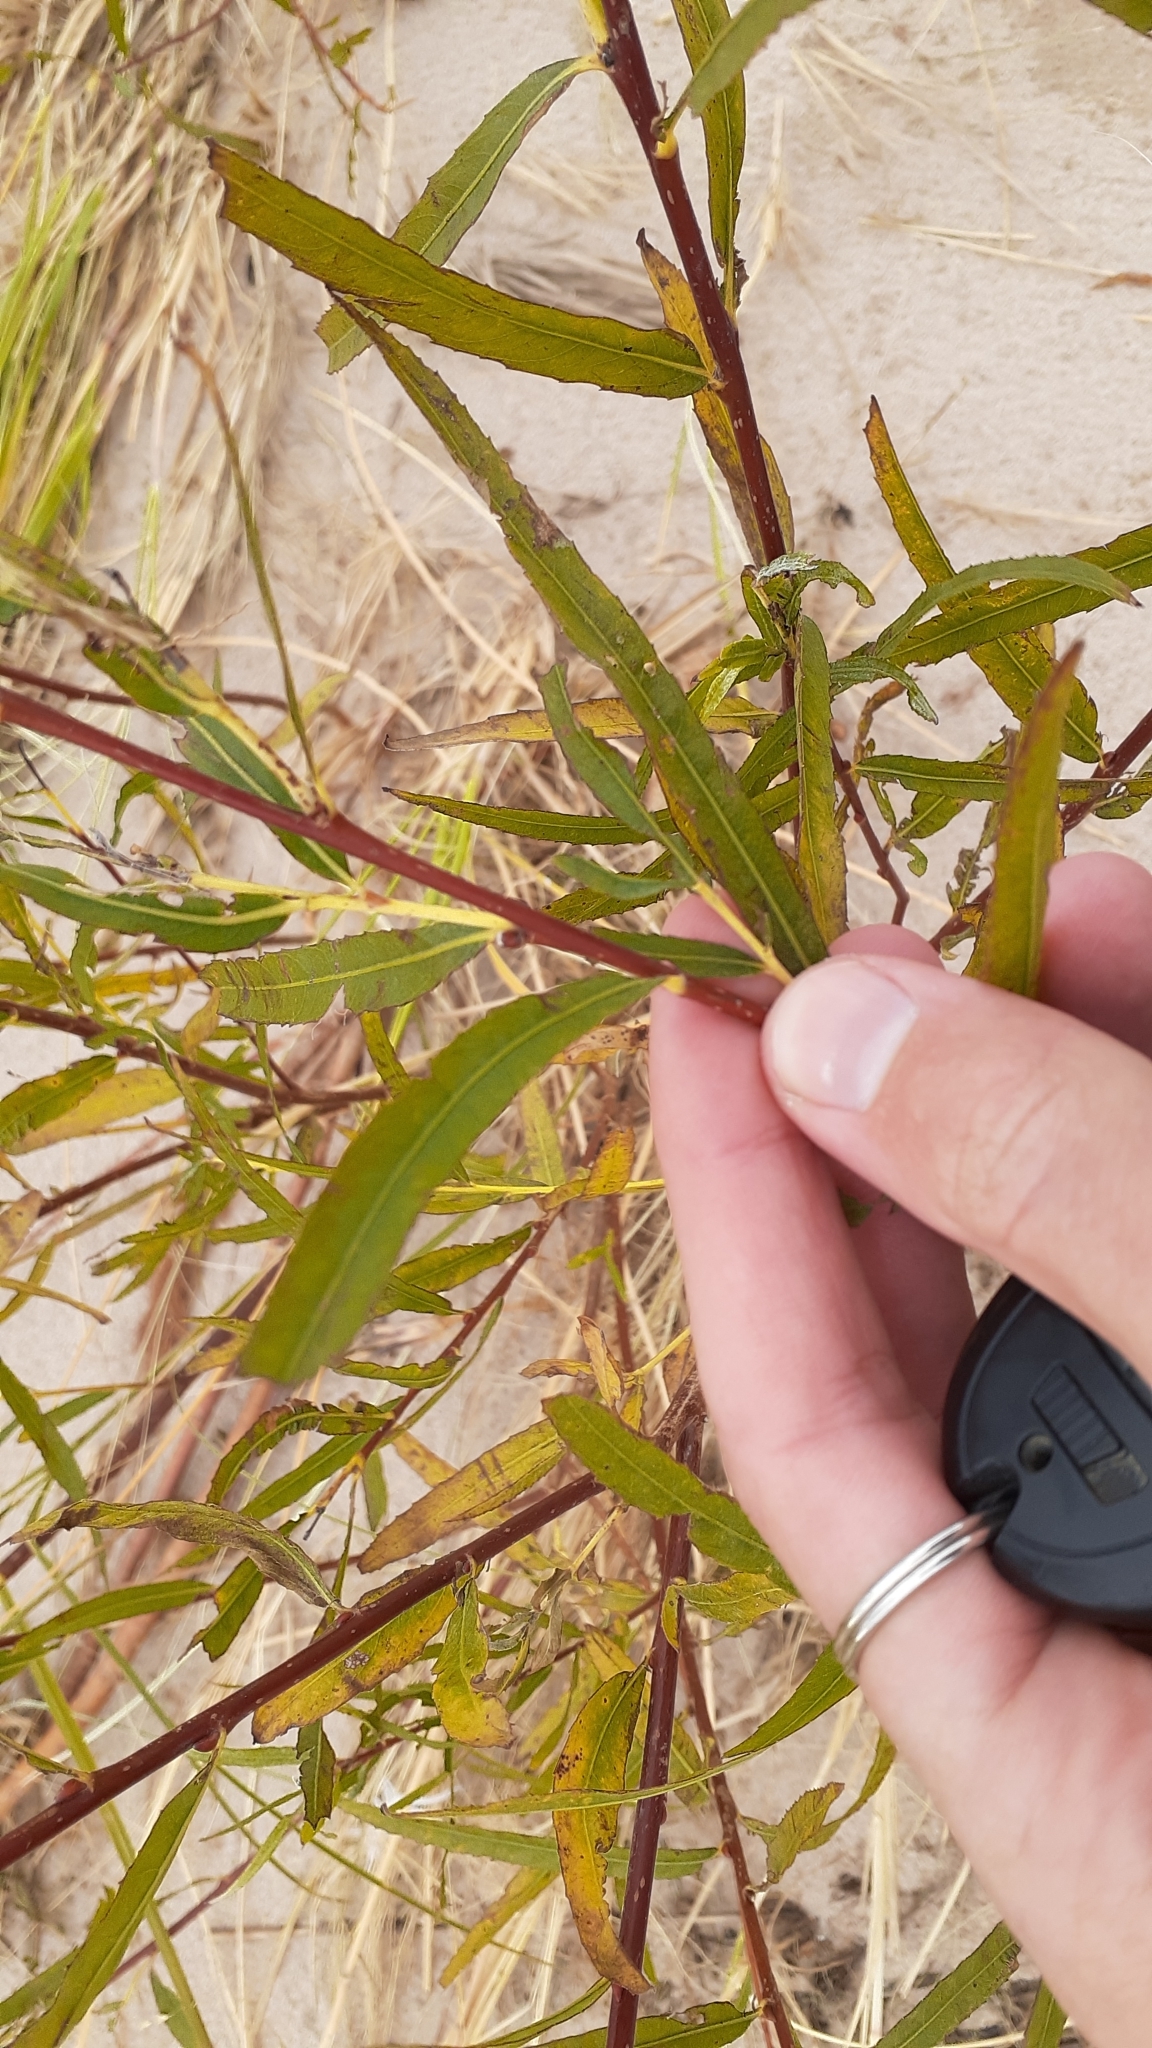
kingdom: Plantae
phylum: Tracheophyta
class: Magnoliopsida
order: Malpighiales
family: Salicaceae
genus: Salix
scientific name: Salix interior
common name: Sandbar willow
